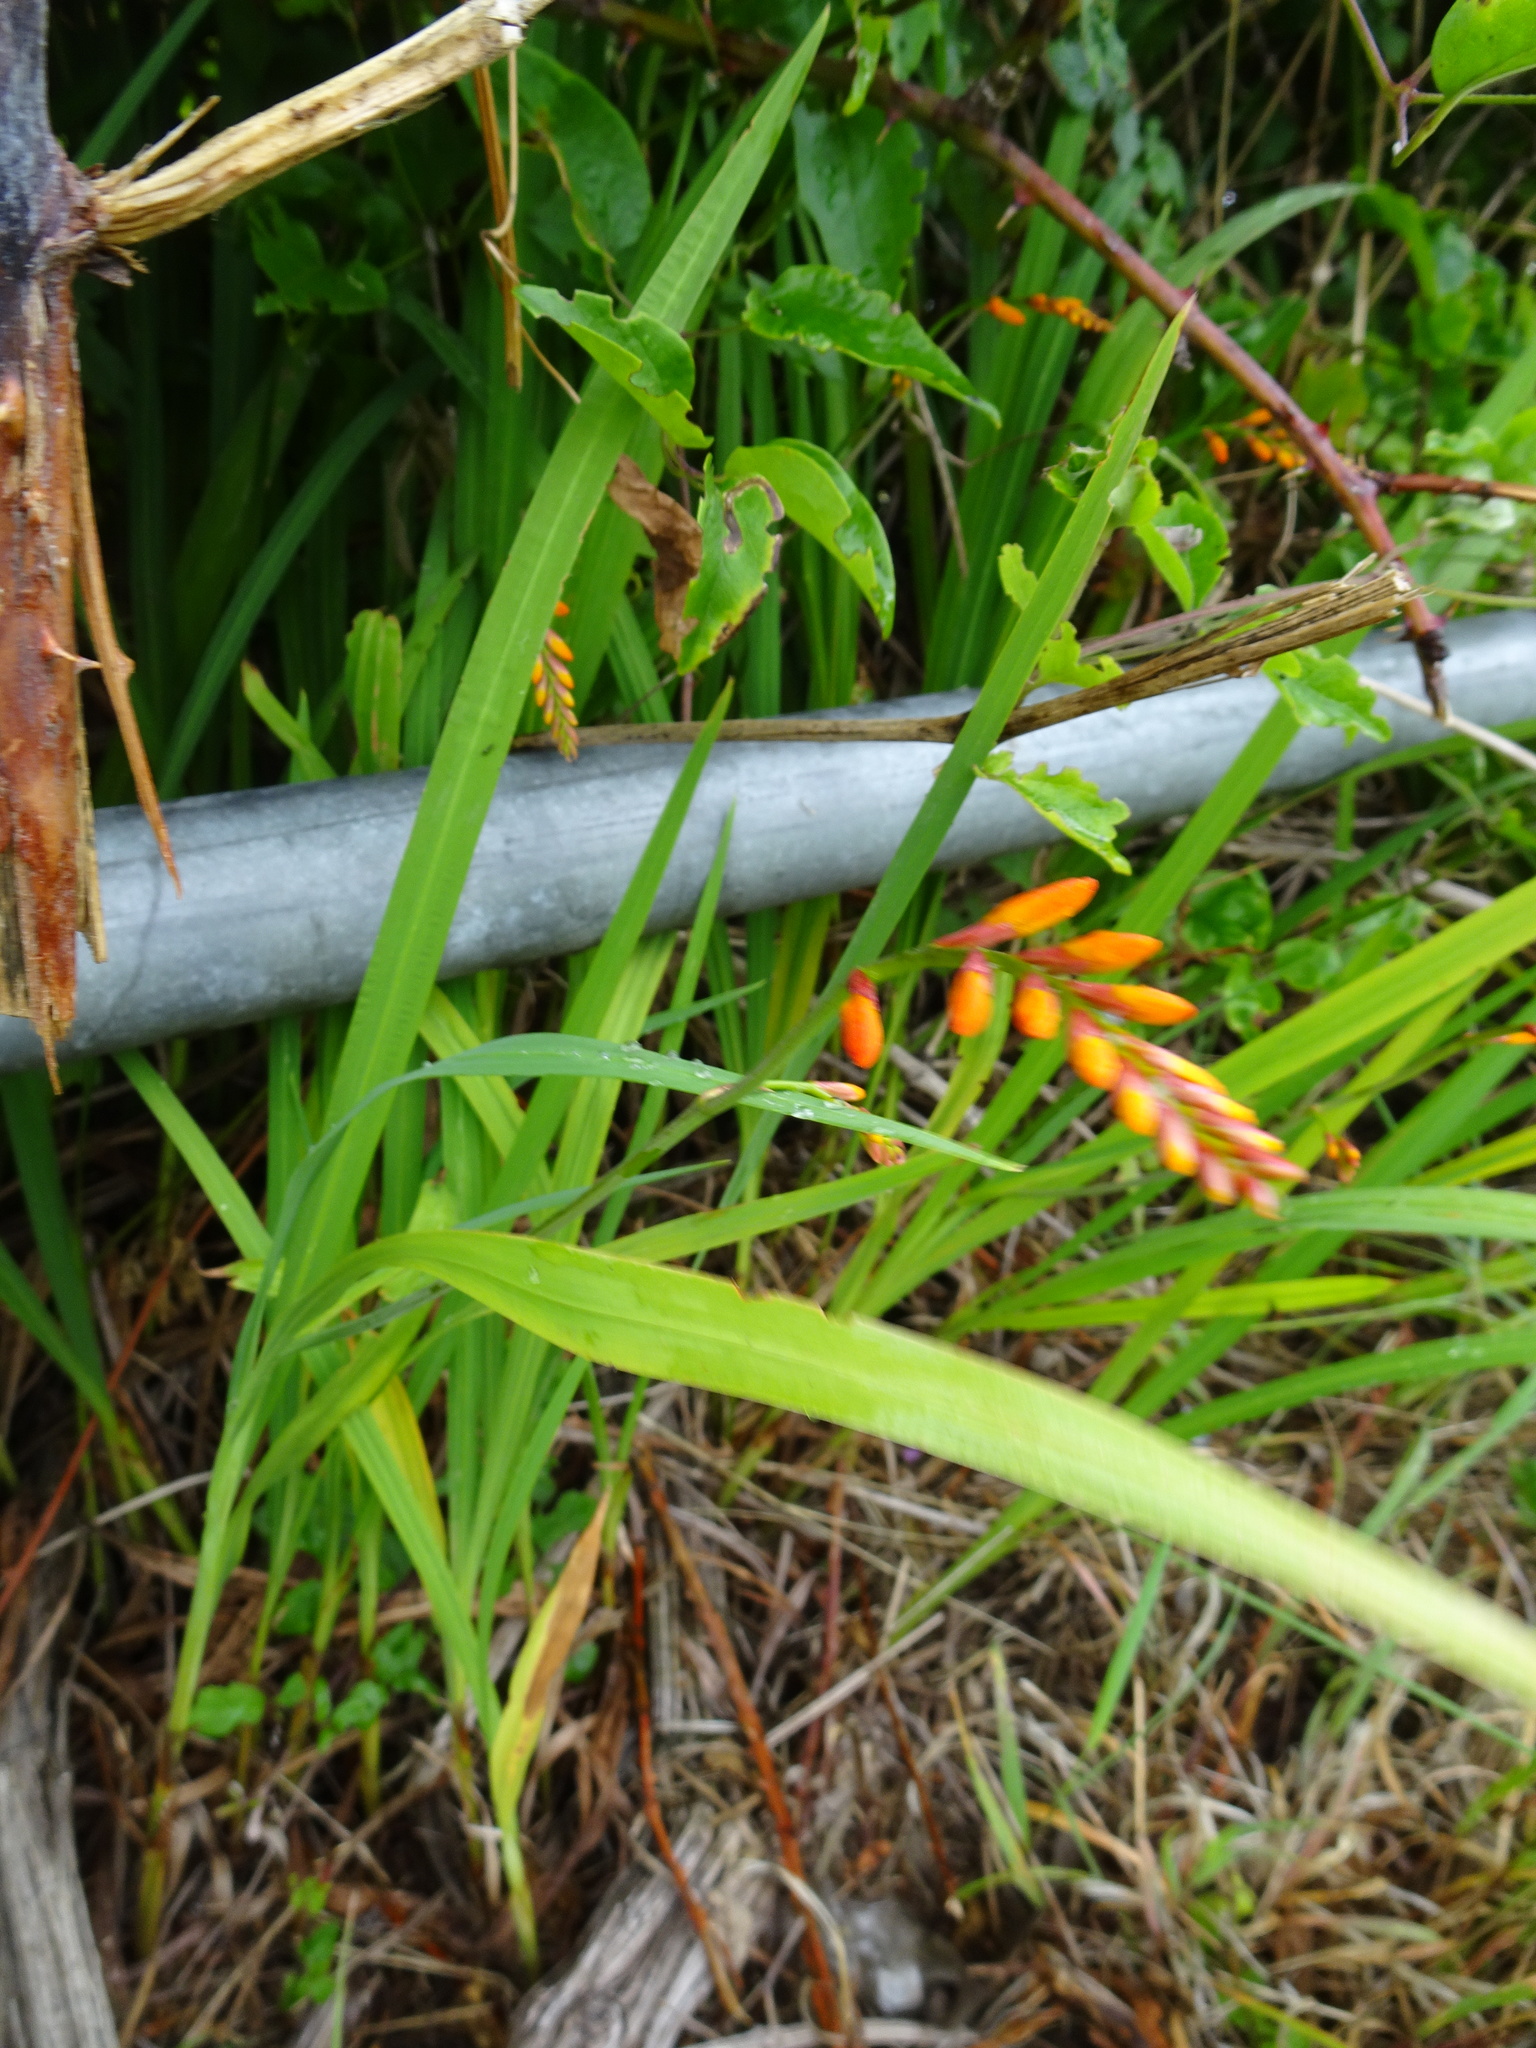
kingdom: Plantae
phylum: Tracheophyta
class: Liliopsida
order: Asparagales
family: Iridaceae
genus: Crocosmia
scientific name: Crocosmia crocosmiiflora
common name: Montbretia
